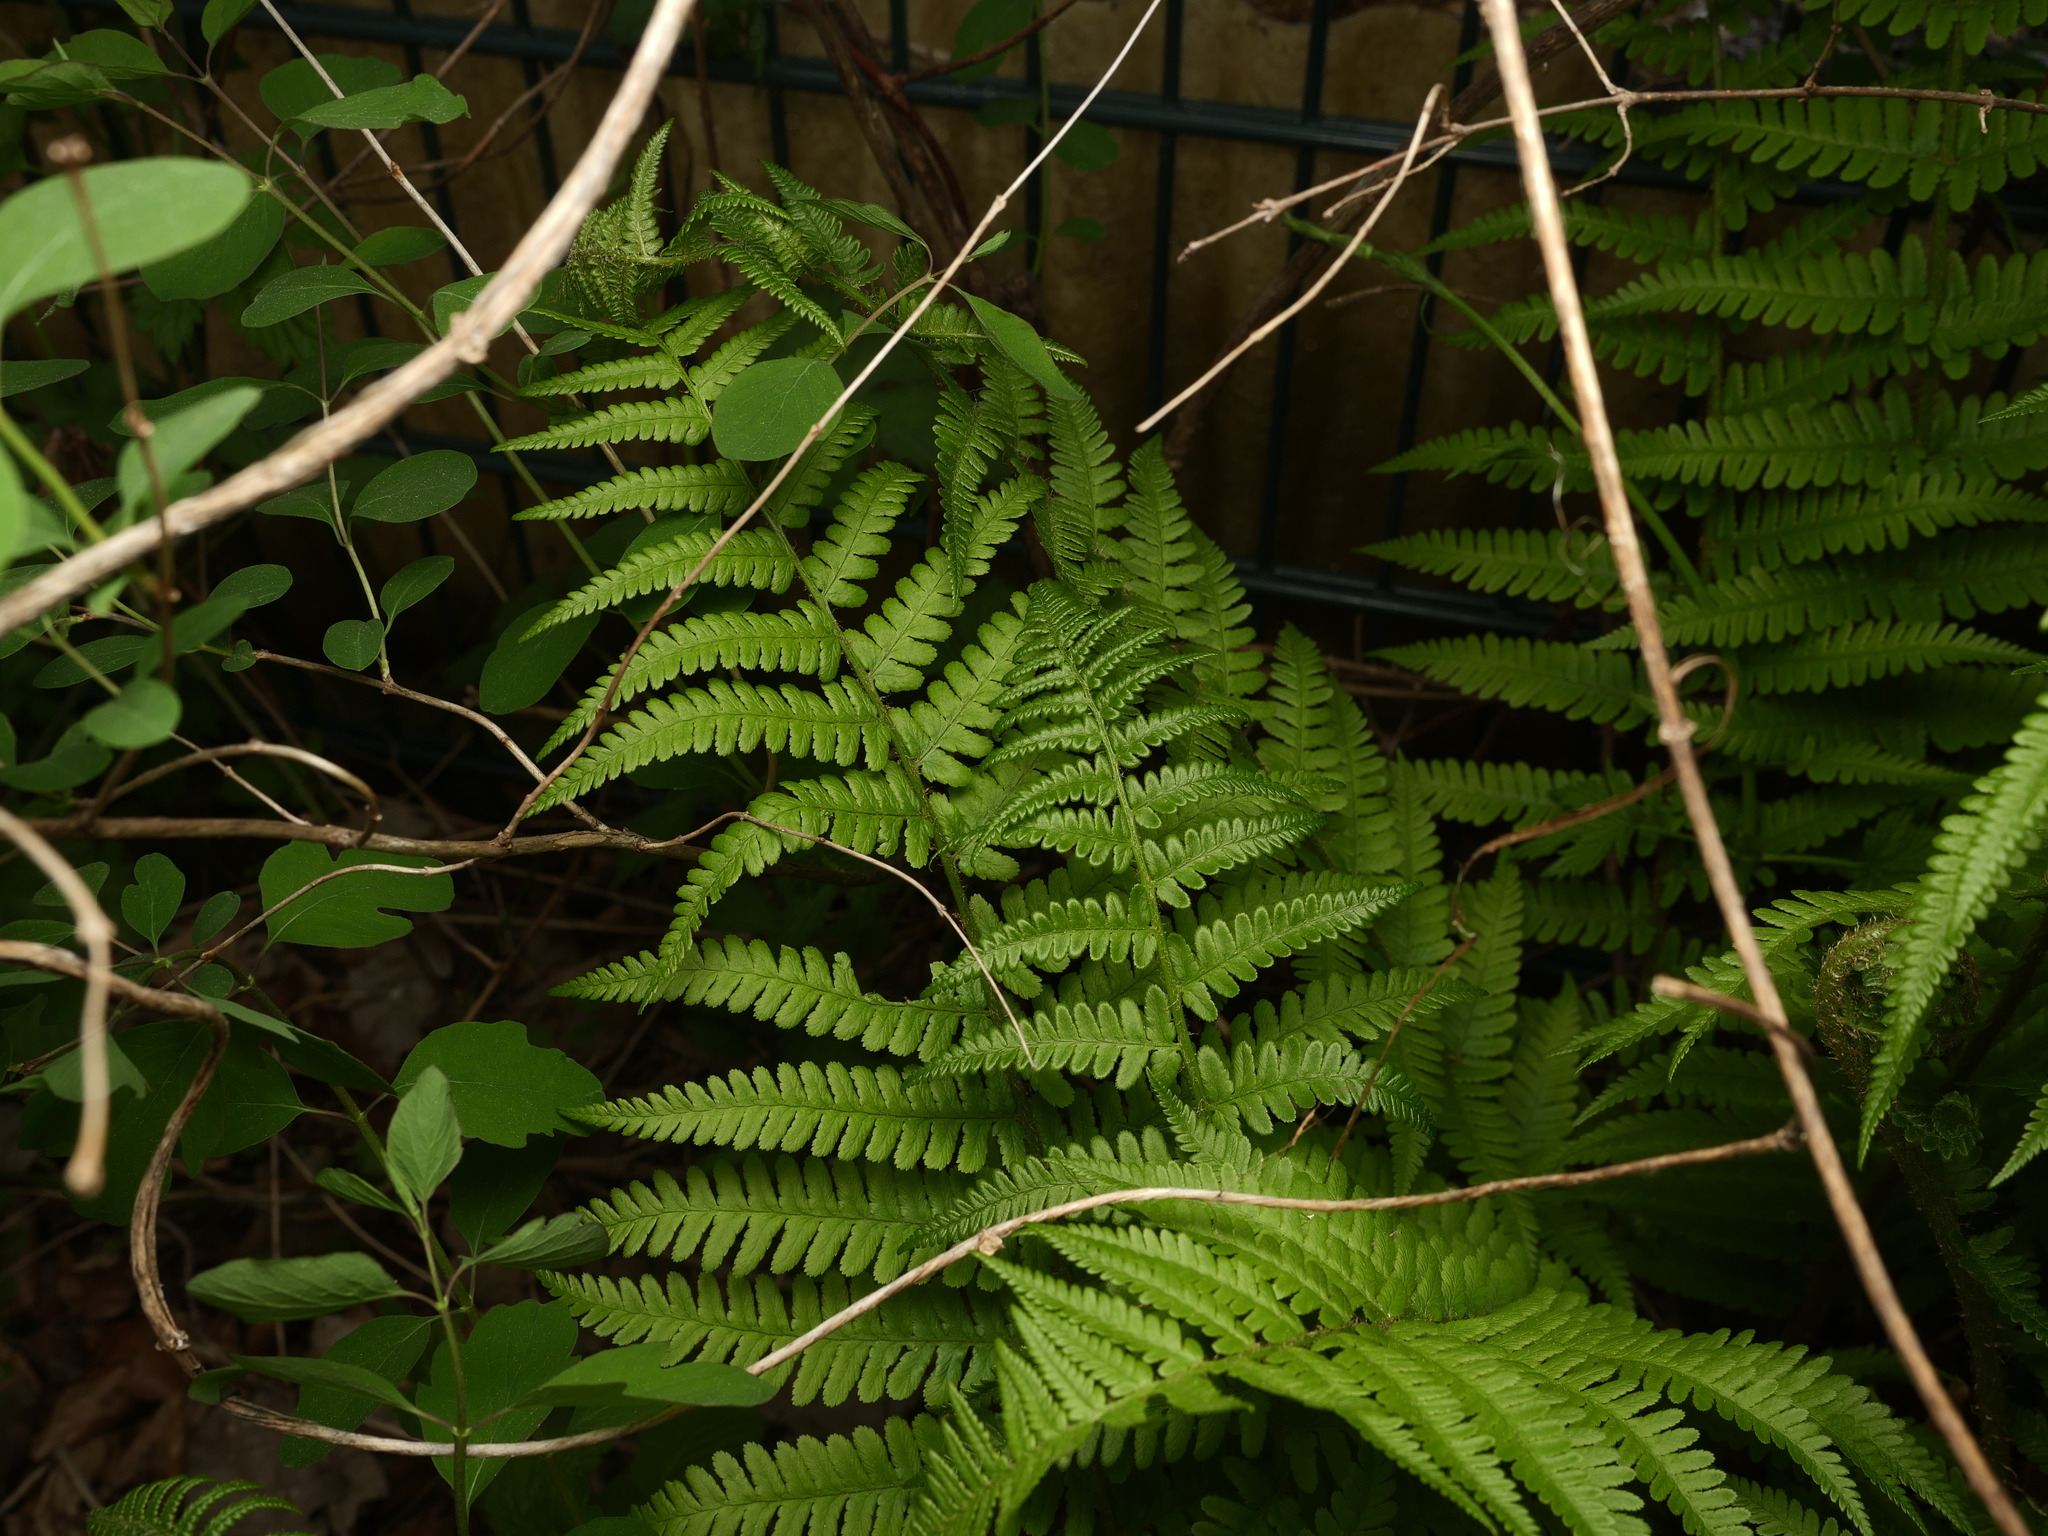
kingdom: Plantae
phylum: Tracheophyta
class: Polypodiopsida
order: Polypodiales
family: Dryopteridaceae
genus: Dryopteris
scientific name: Dryopteris filix-mas
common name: Male fern
